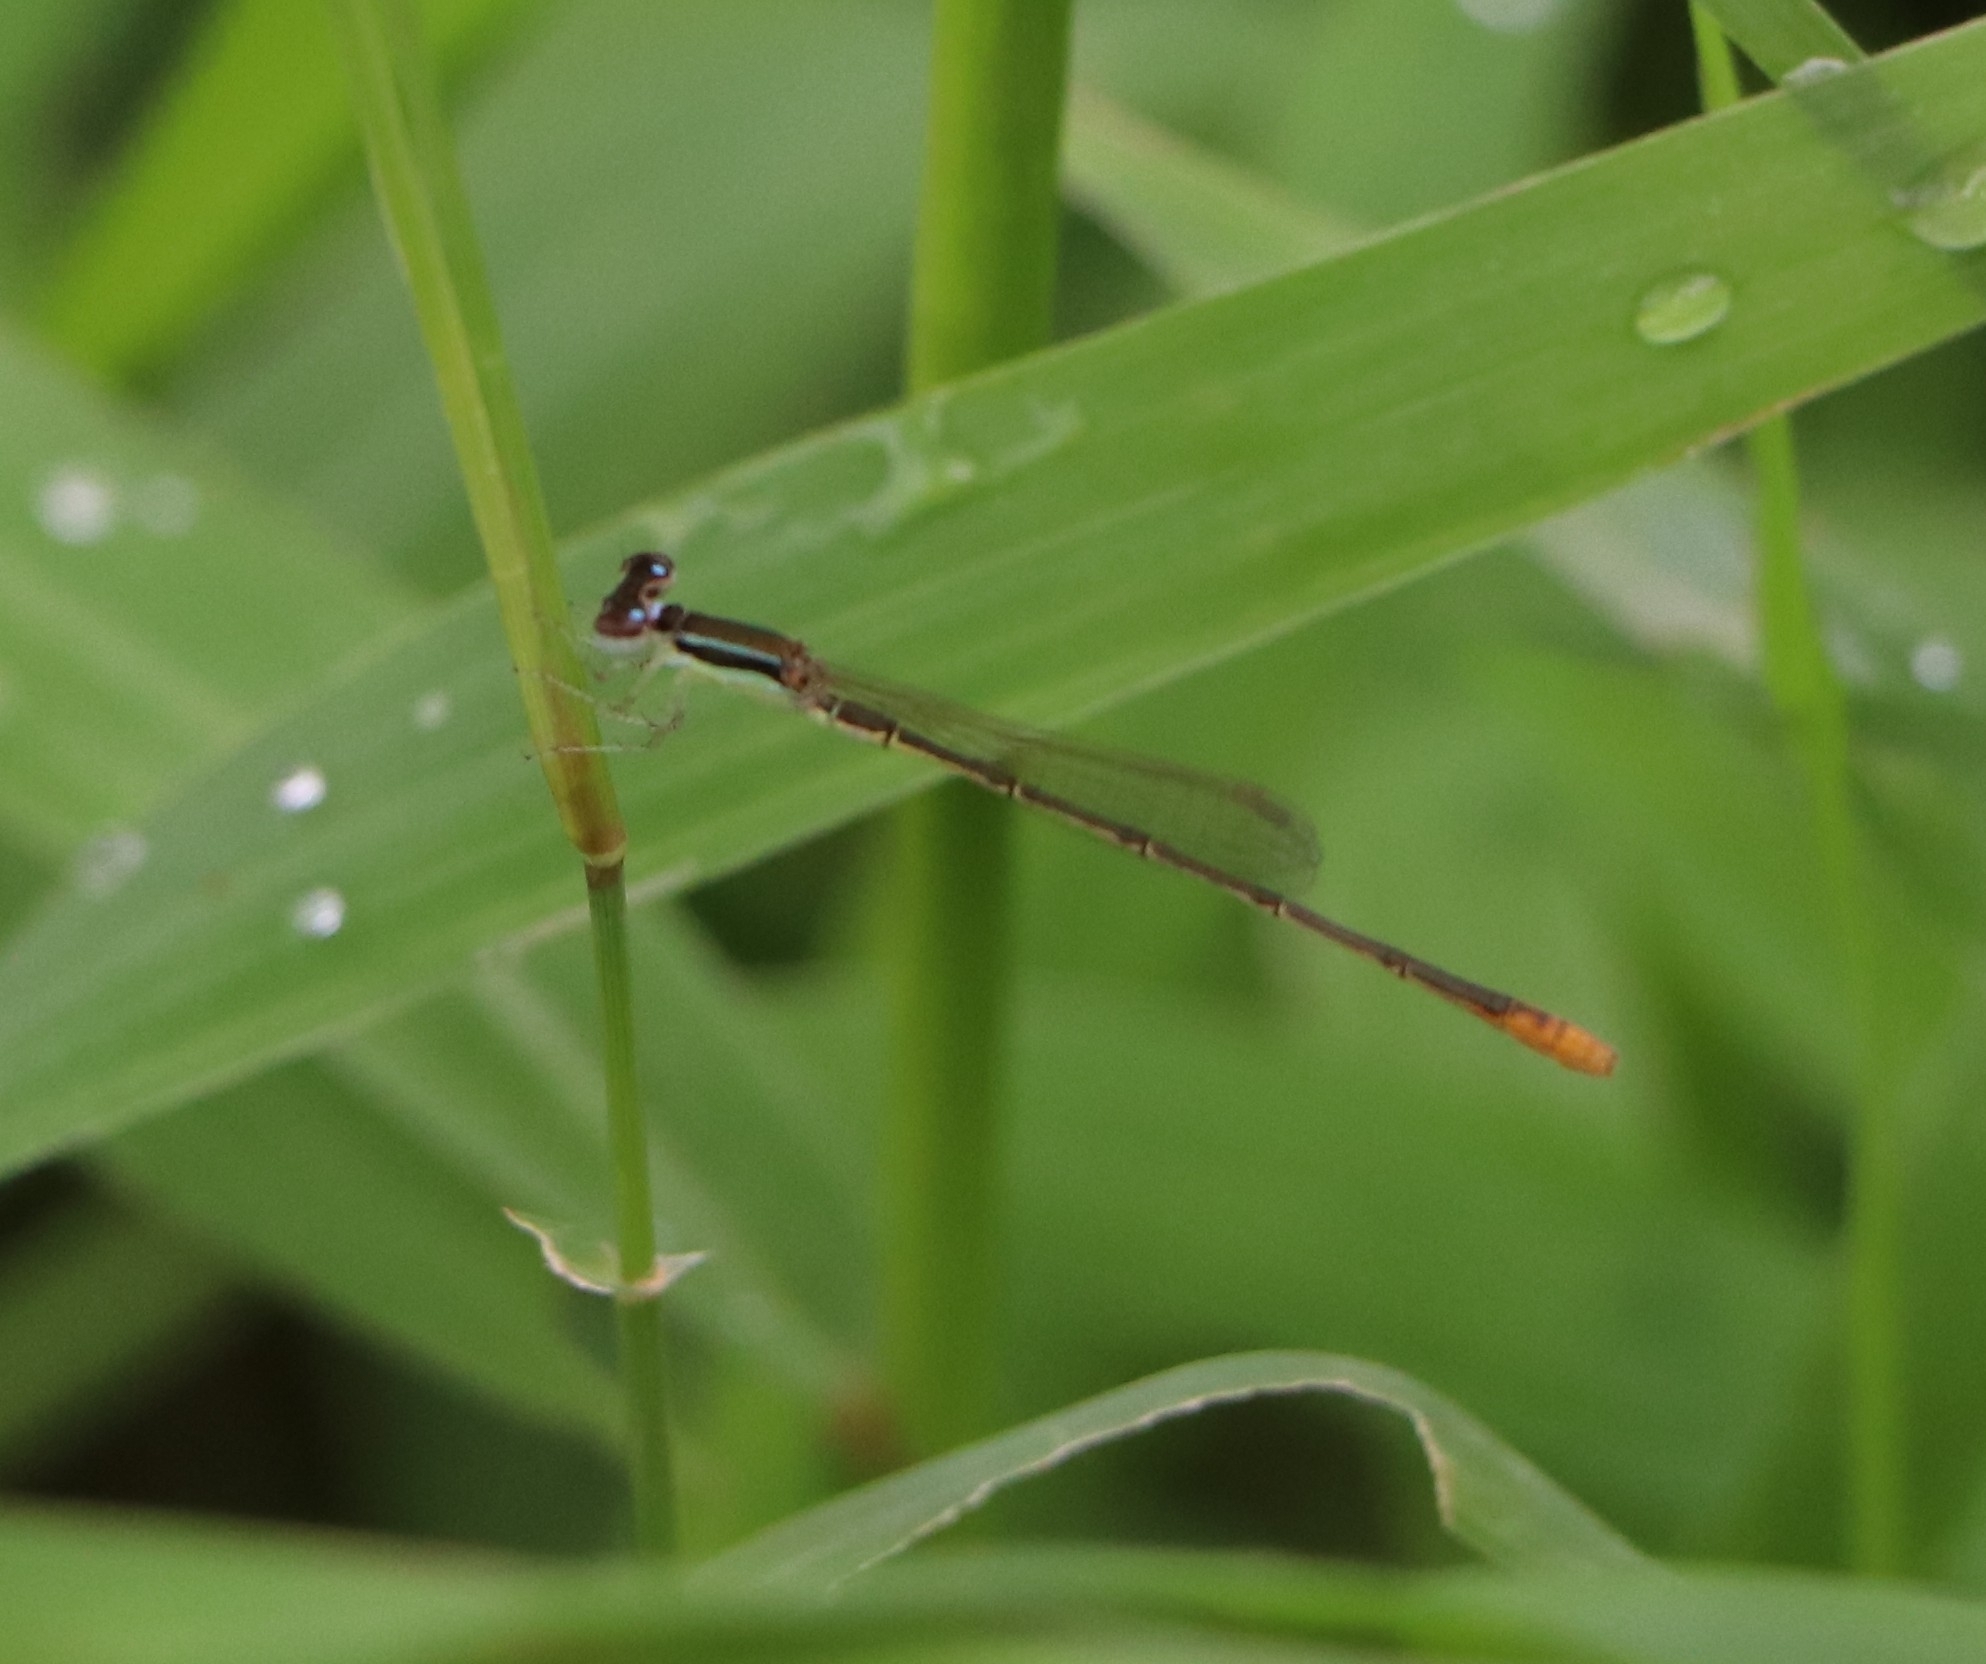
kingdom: Animalia
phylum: Arthropoda
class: Insecta
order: Odonata
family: Coenagrionidae
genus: Agriocnemis
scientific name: Agriocnemis pygmaea
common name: Pygmy wisp
